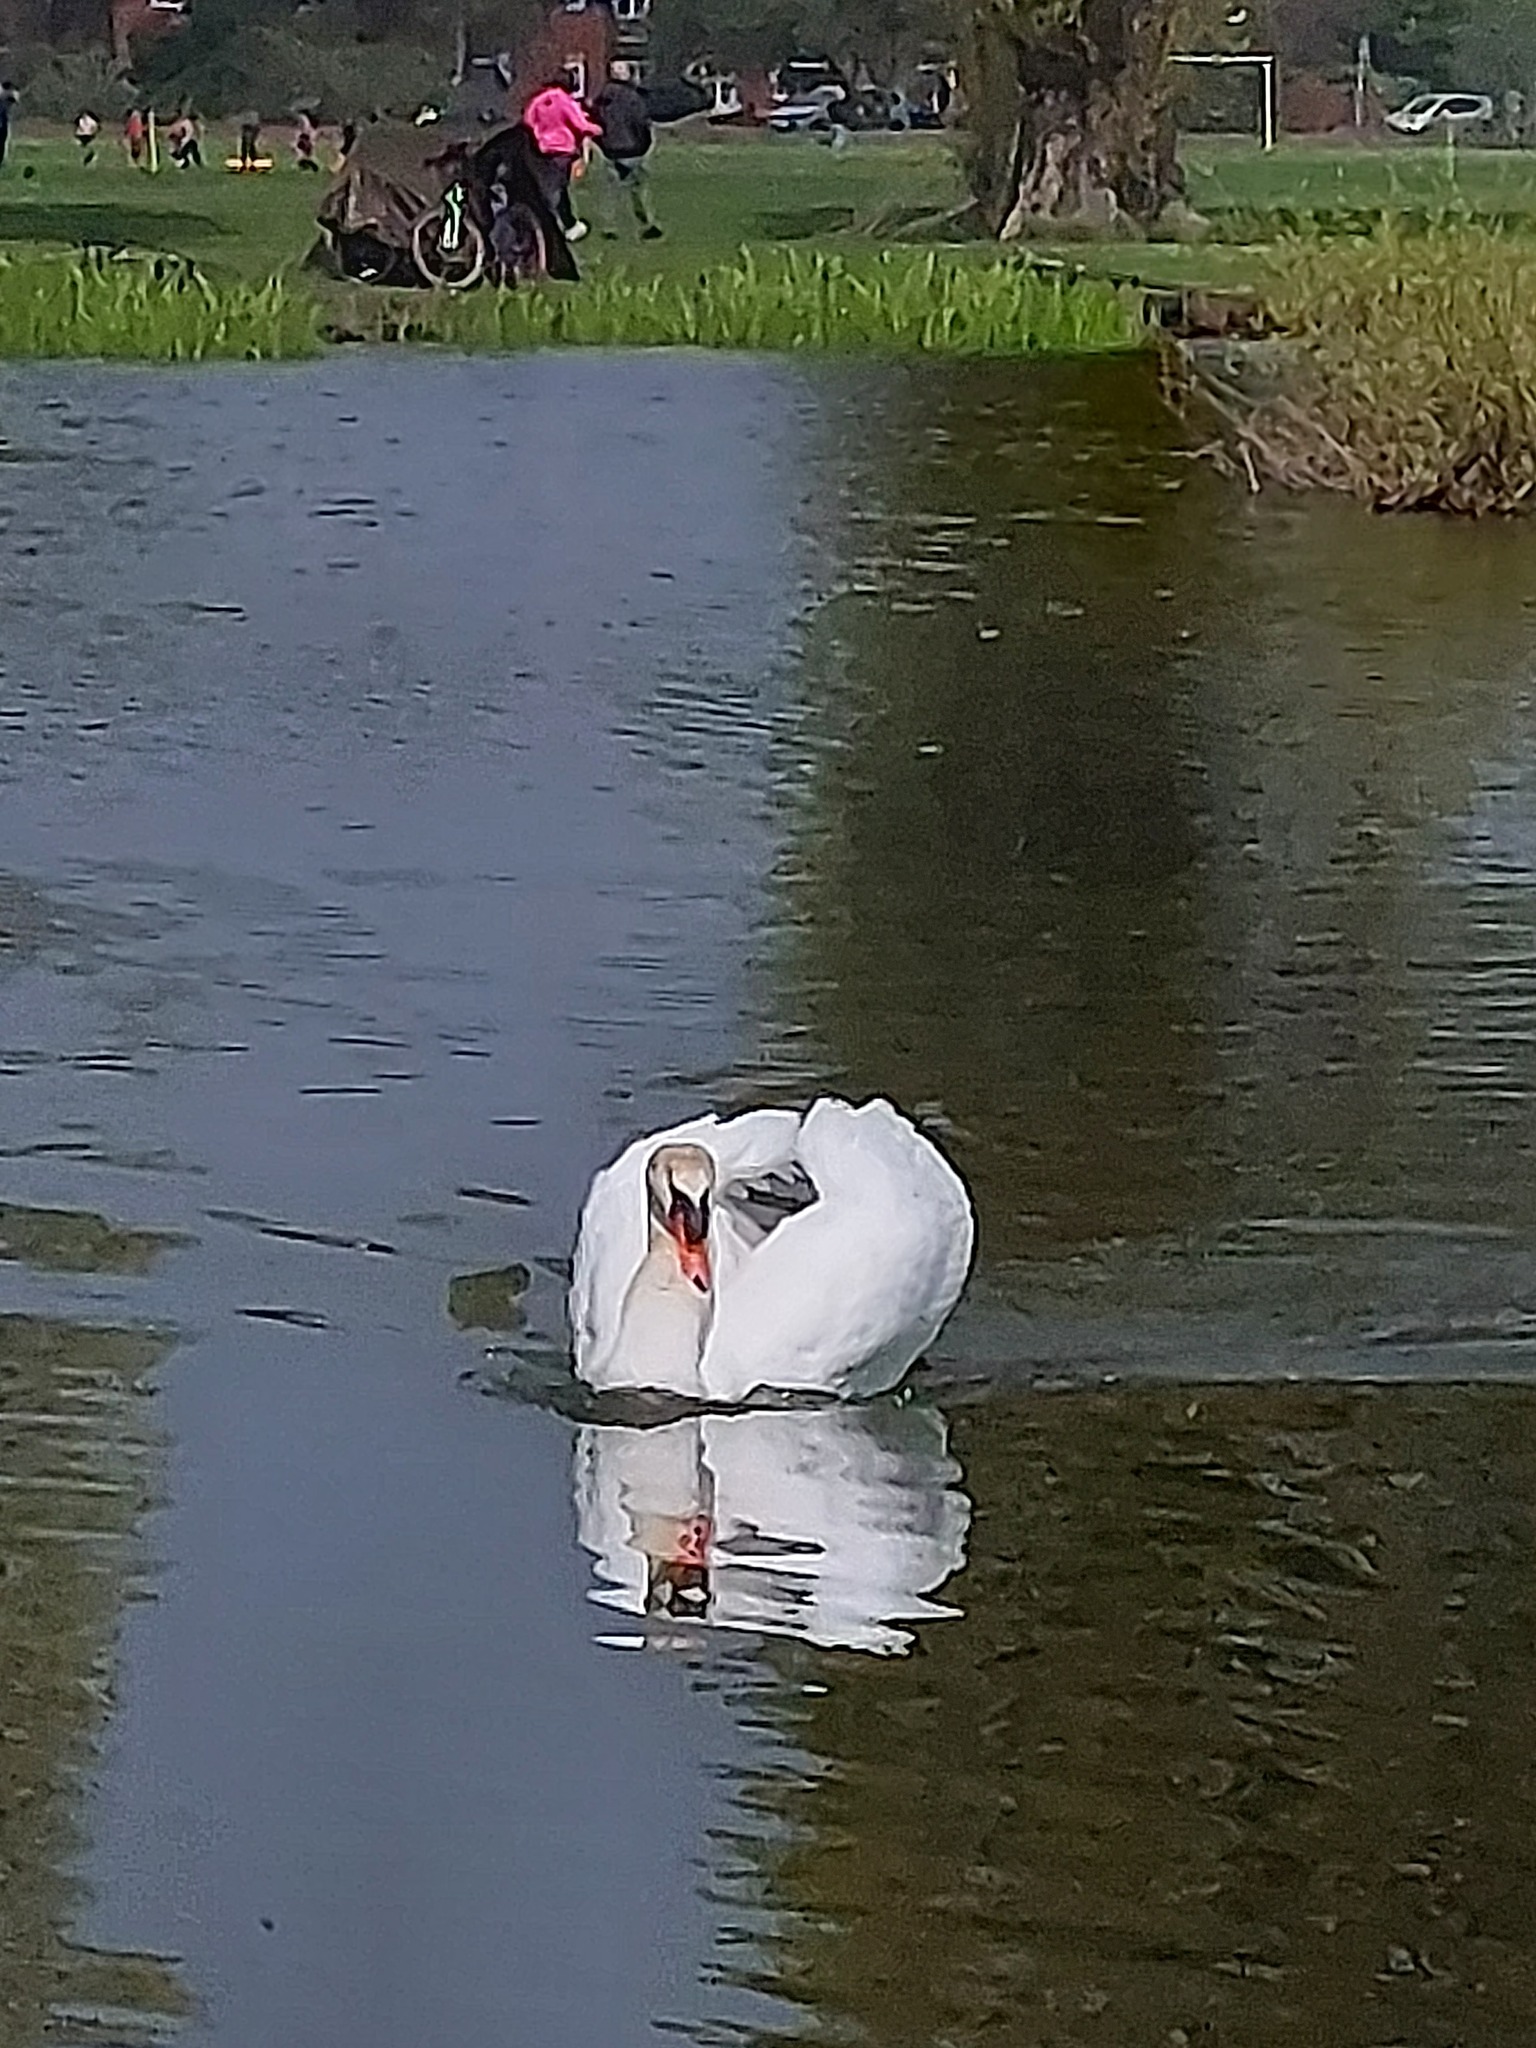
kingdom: Animalia
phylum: Chordata
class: Aves
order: Anseriformes
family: Anatidae
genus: Cygnus
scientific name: Cygnus olor
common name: Mute swan
